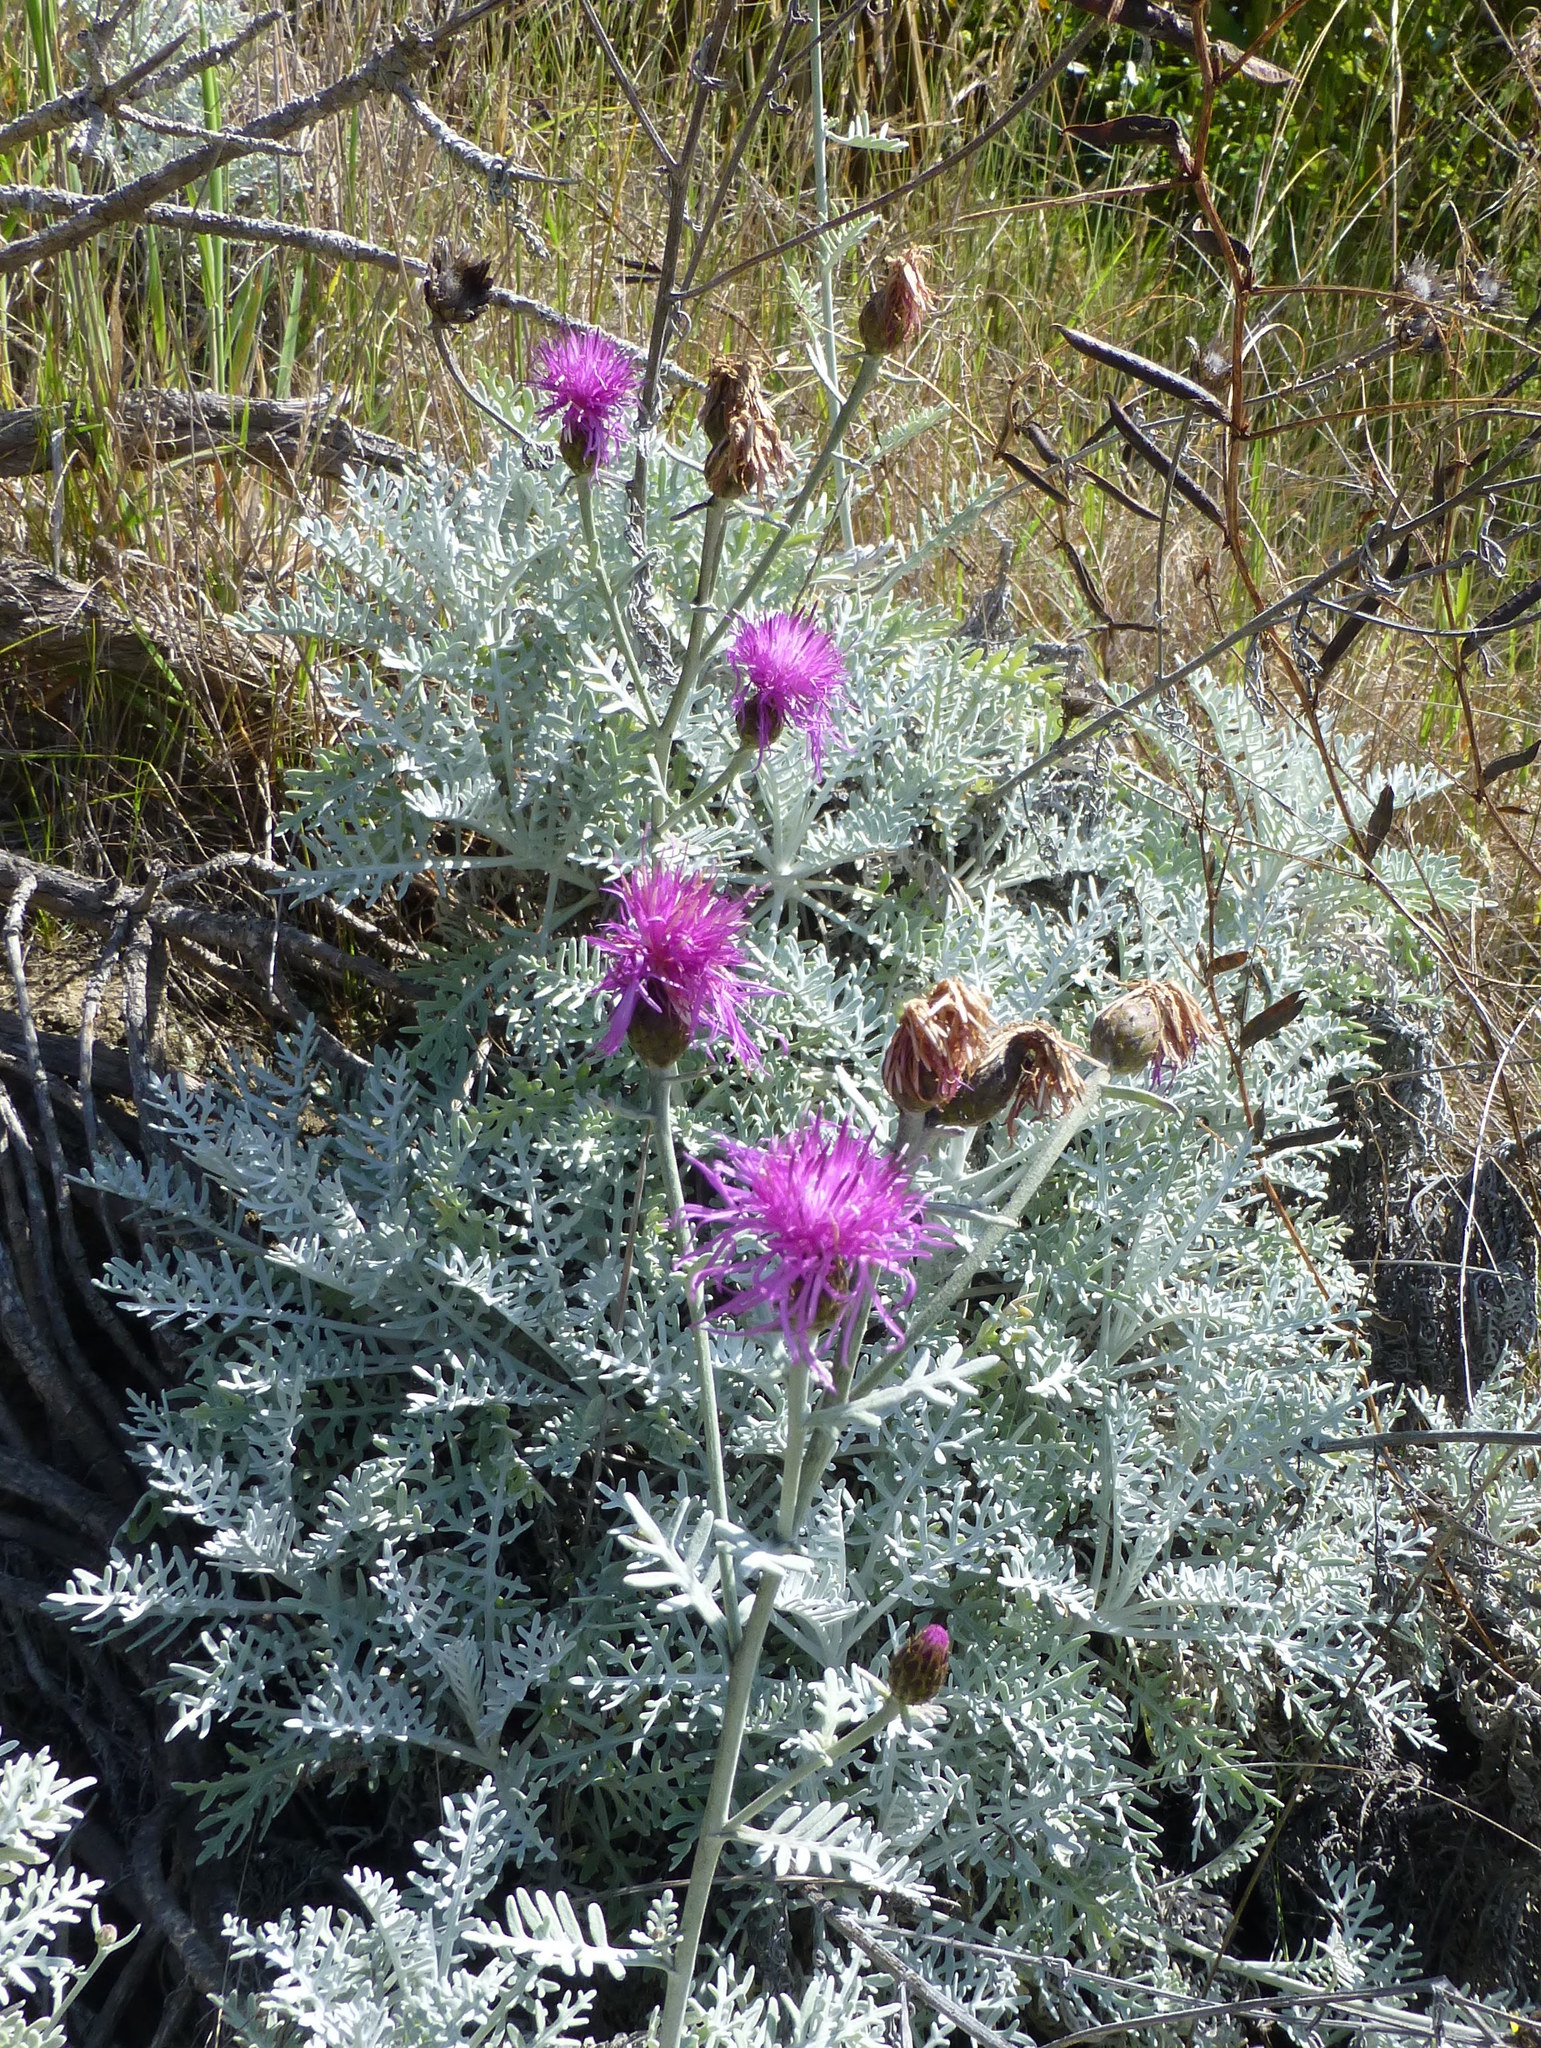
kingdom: Plantae
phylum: Tracheophyta
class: Magnoliopsida
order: Asterales
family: Asteraceae
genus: Centaurea
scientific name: Centaurea cineraria
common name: Dusty miller
